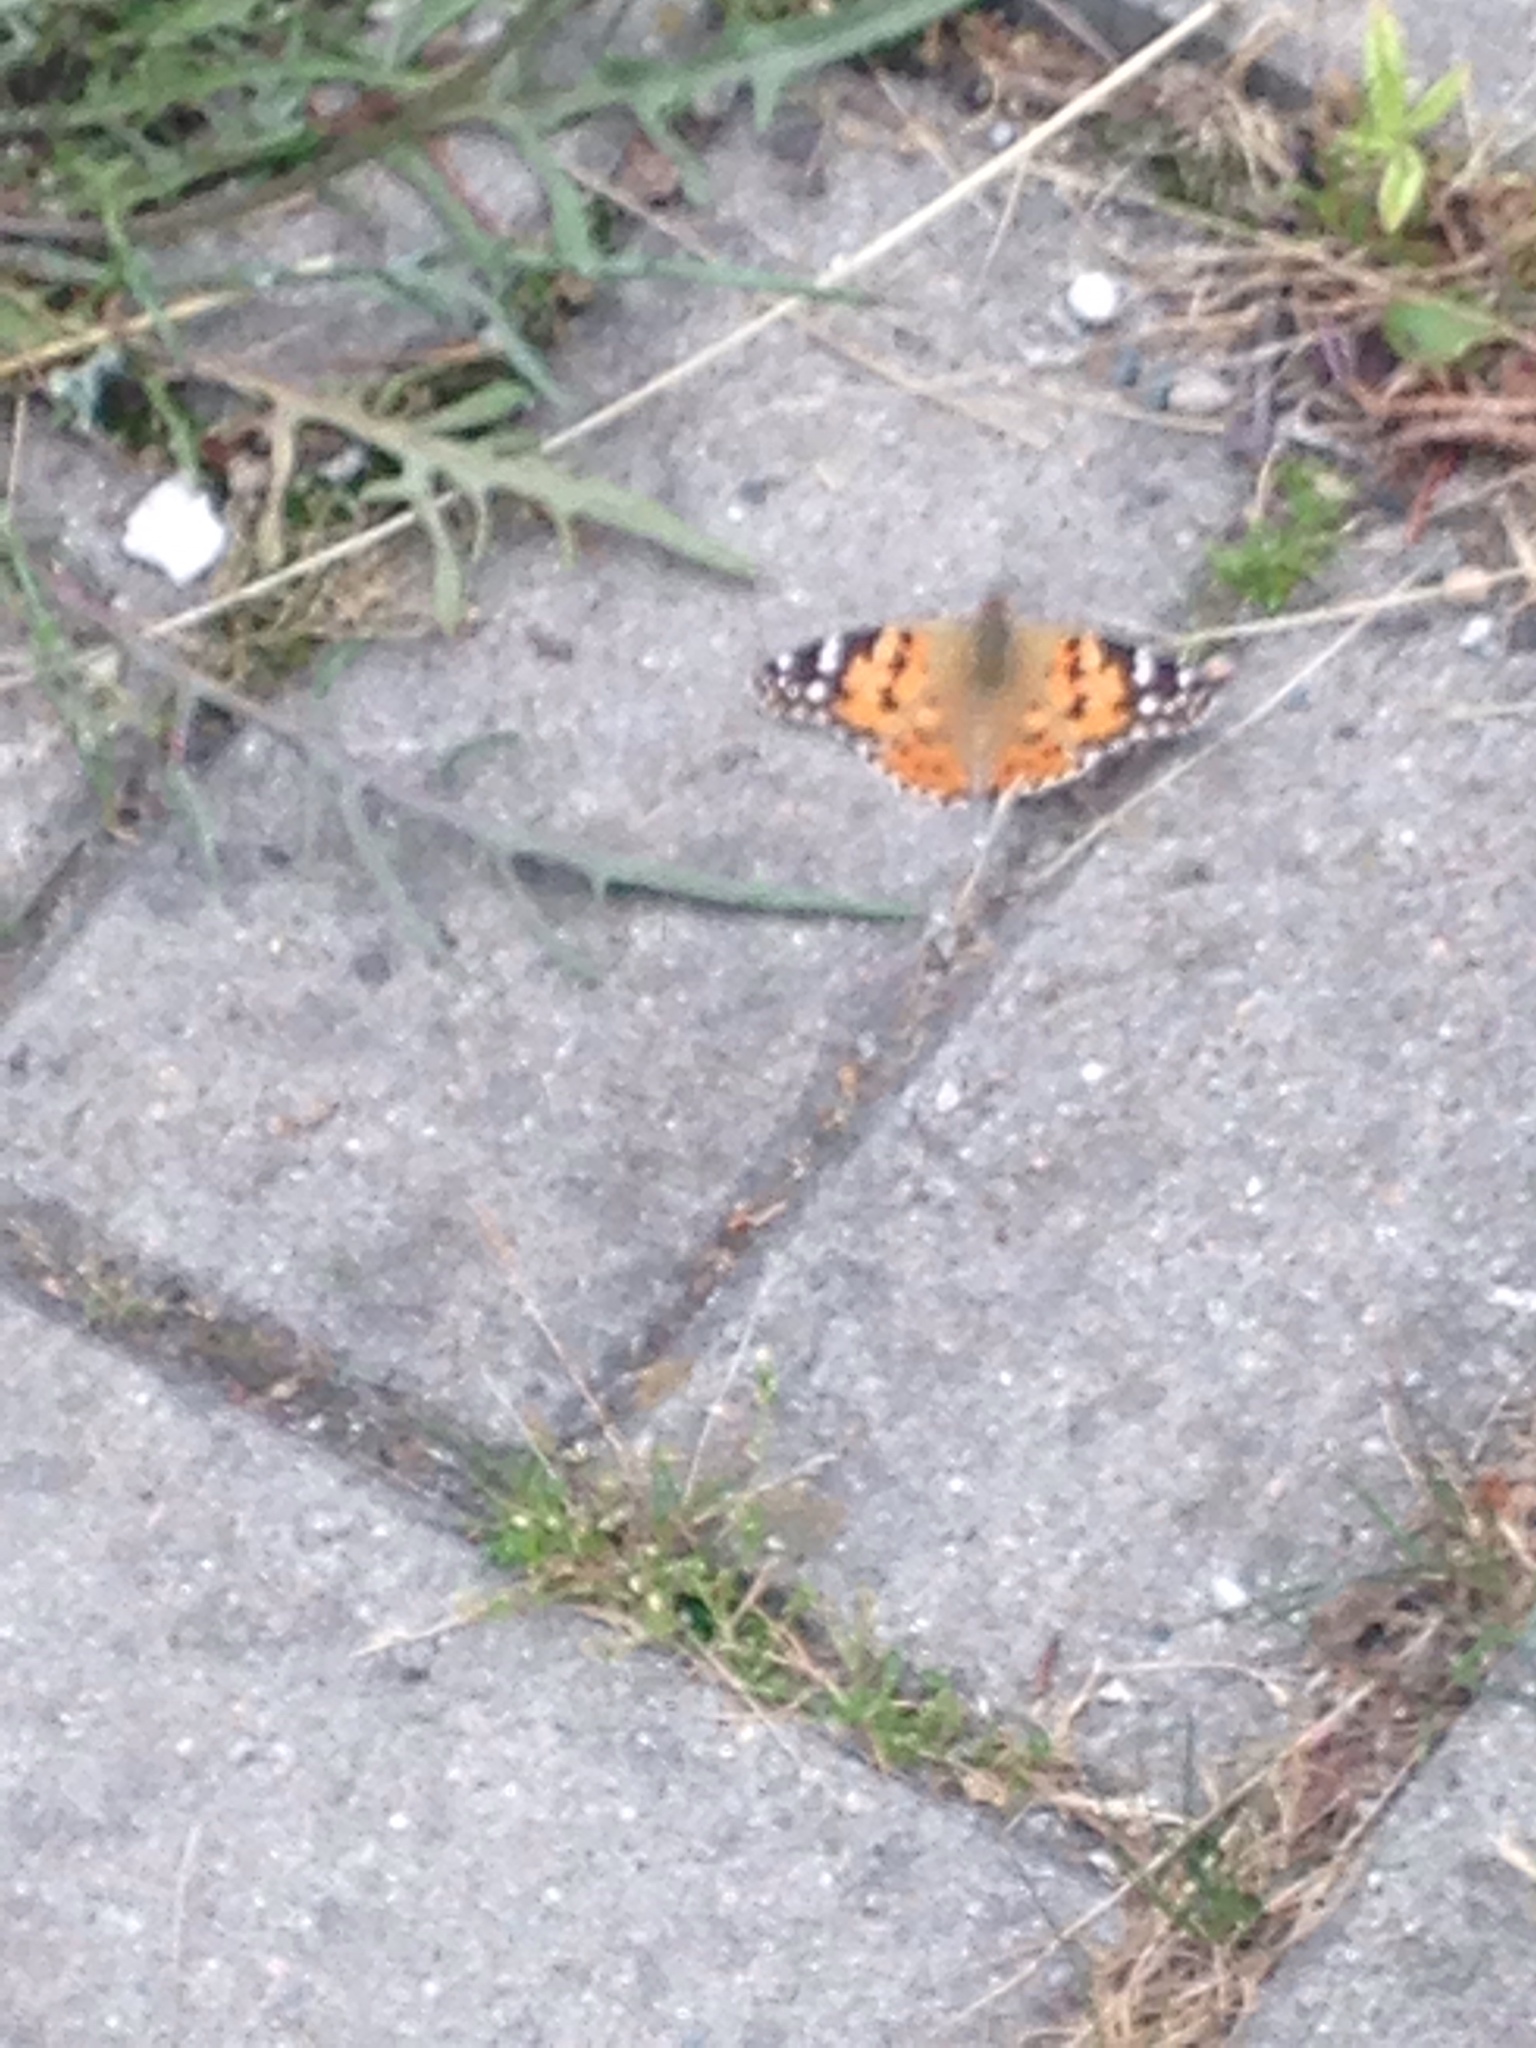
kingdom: Animalia
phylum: Arthropoda
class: Insecta
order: Lepidoptera
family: Nymphalidae
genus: Vanessa
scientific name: Vanessa cardui
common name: Painted lady
